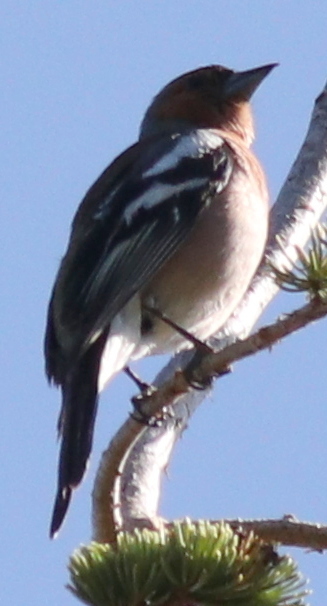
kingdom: Animalia
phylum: Chordata
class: Aves
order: Passeriformes
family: Fringillidae
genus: Fringilla
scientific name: Fringilla coelebs
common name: Common chaffinch
